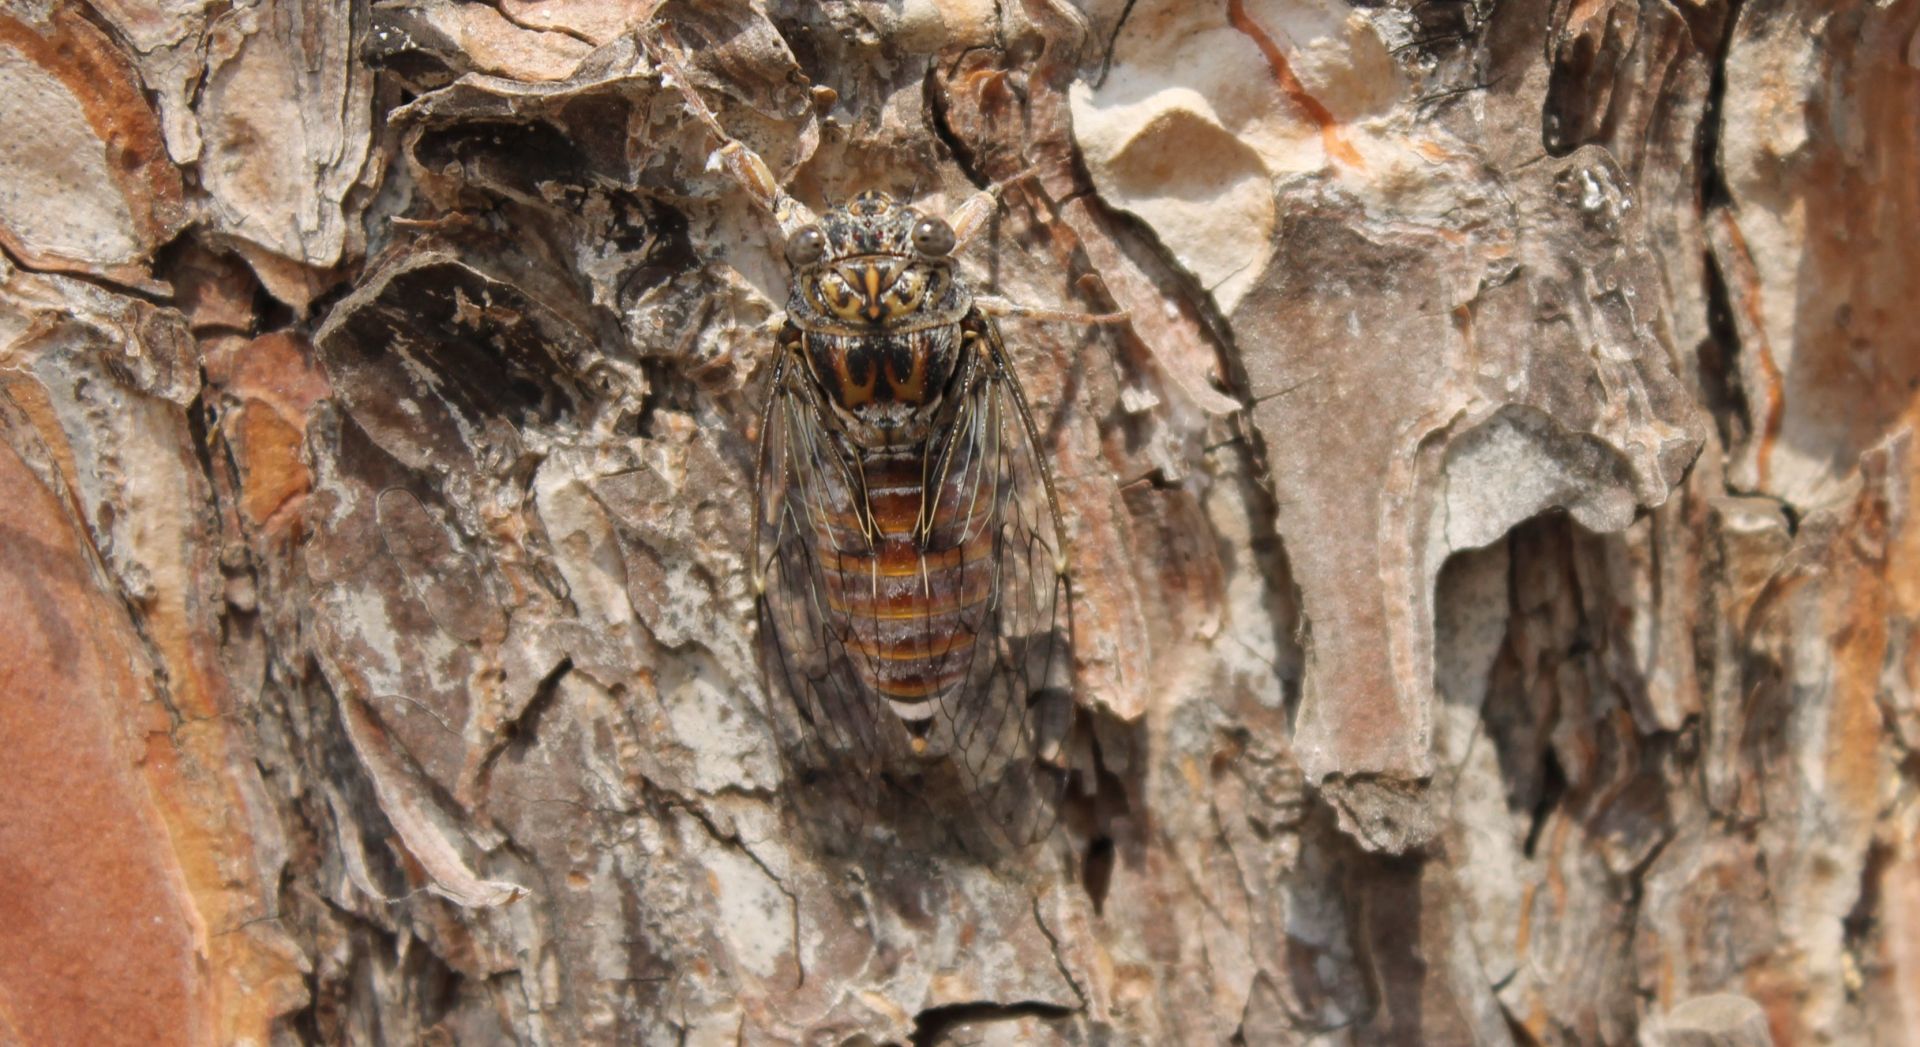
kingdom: Animalia
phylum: Arthropoda
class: Insecta
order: Hemiptera
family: Cicadidae
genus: Cicada
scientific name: Cicada orni
